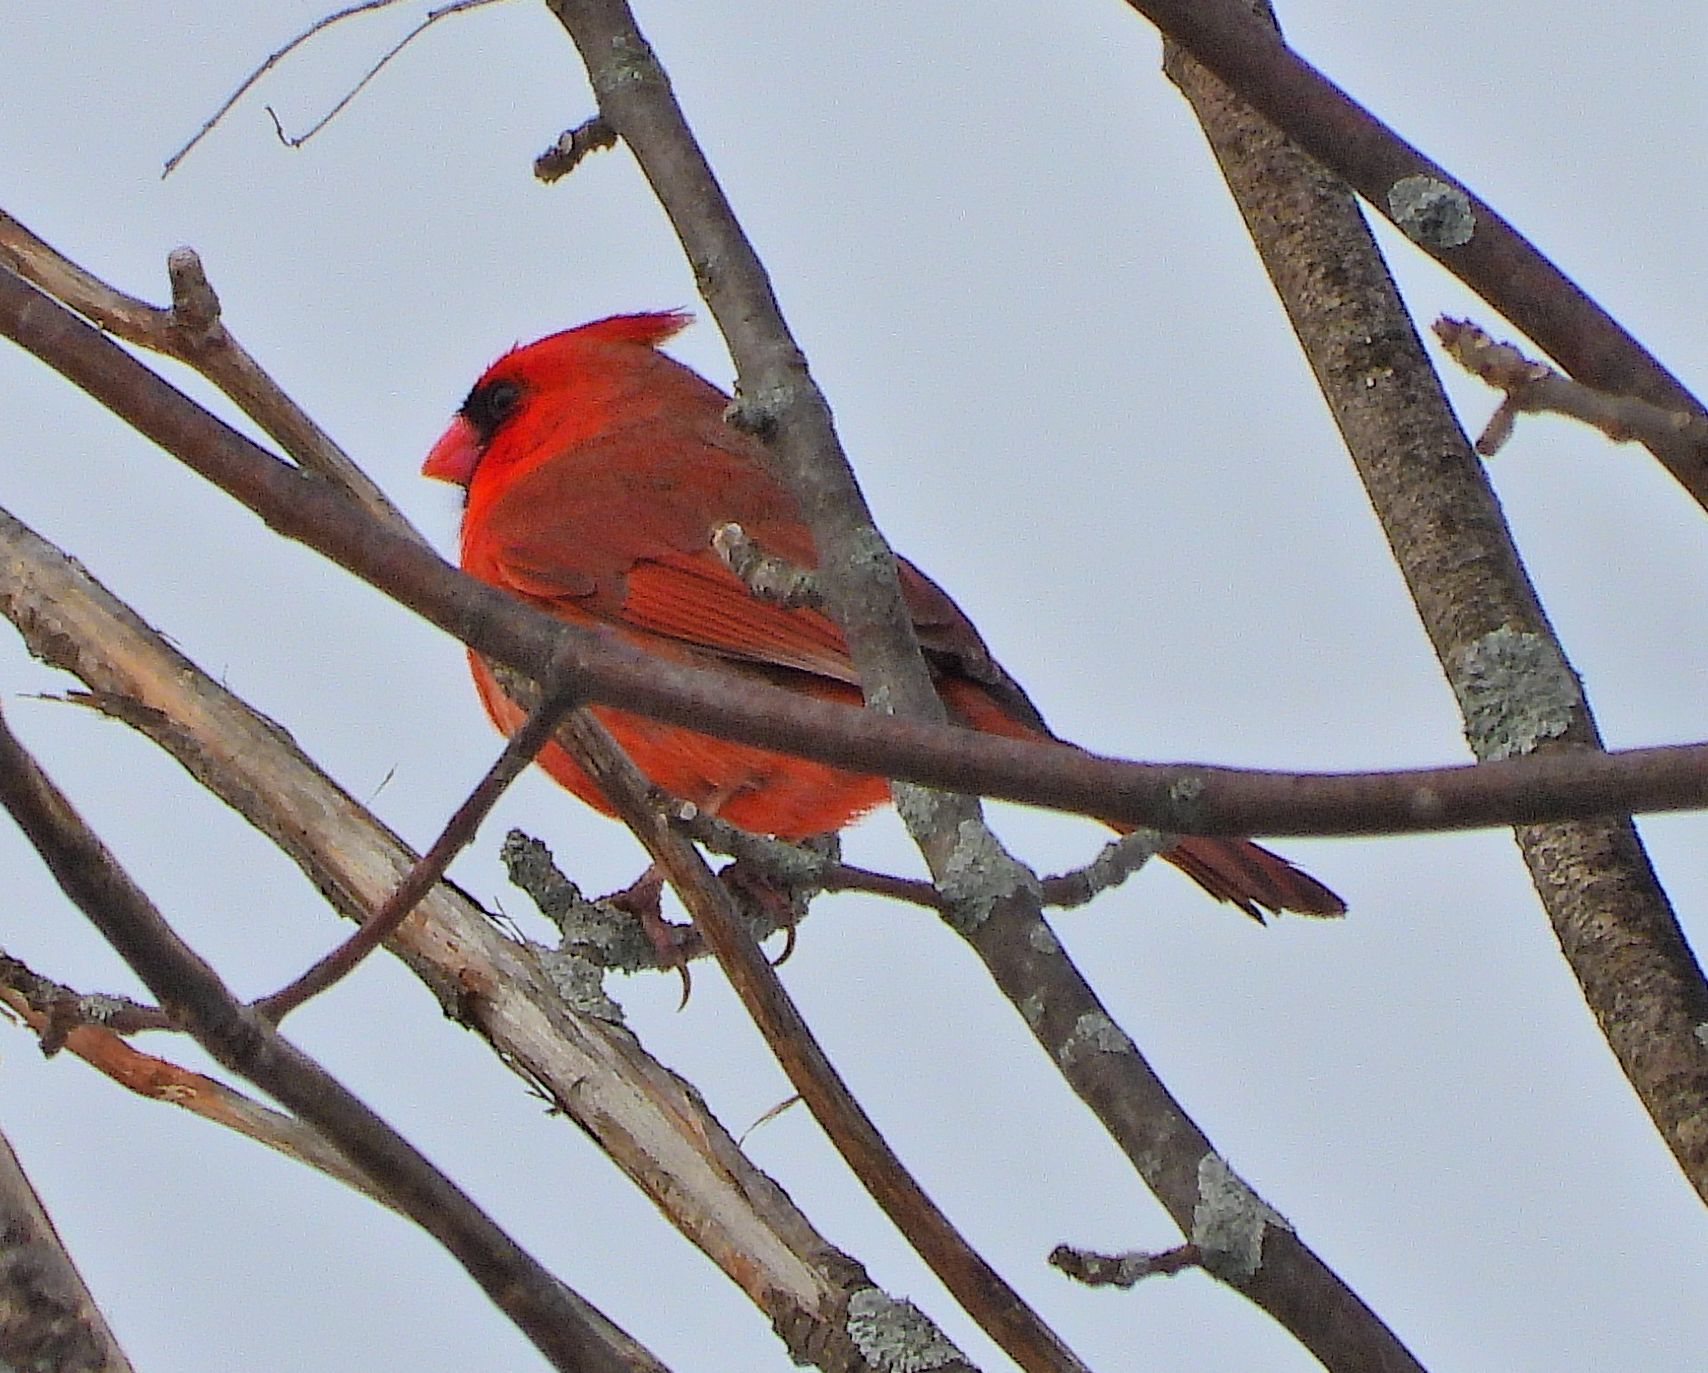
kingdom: Animalia
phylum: Chordata
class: Aves
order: Passeriformes
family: Cardinalidae
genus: Cardinalis
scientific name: Cardinalis cardinalis
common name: Northern cardinal
